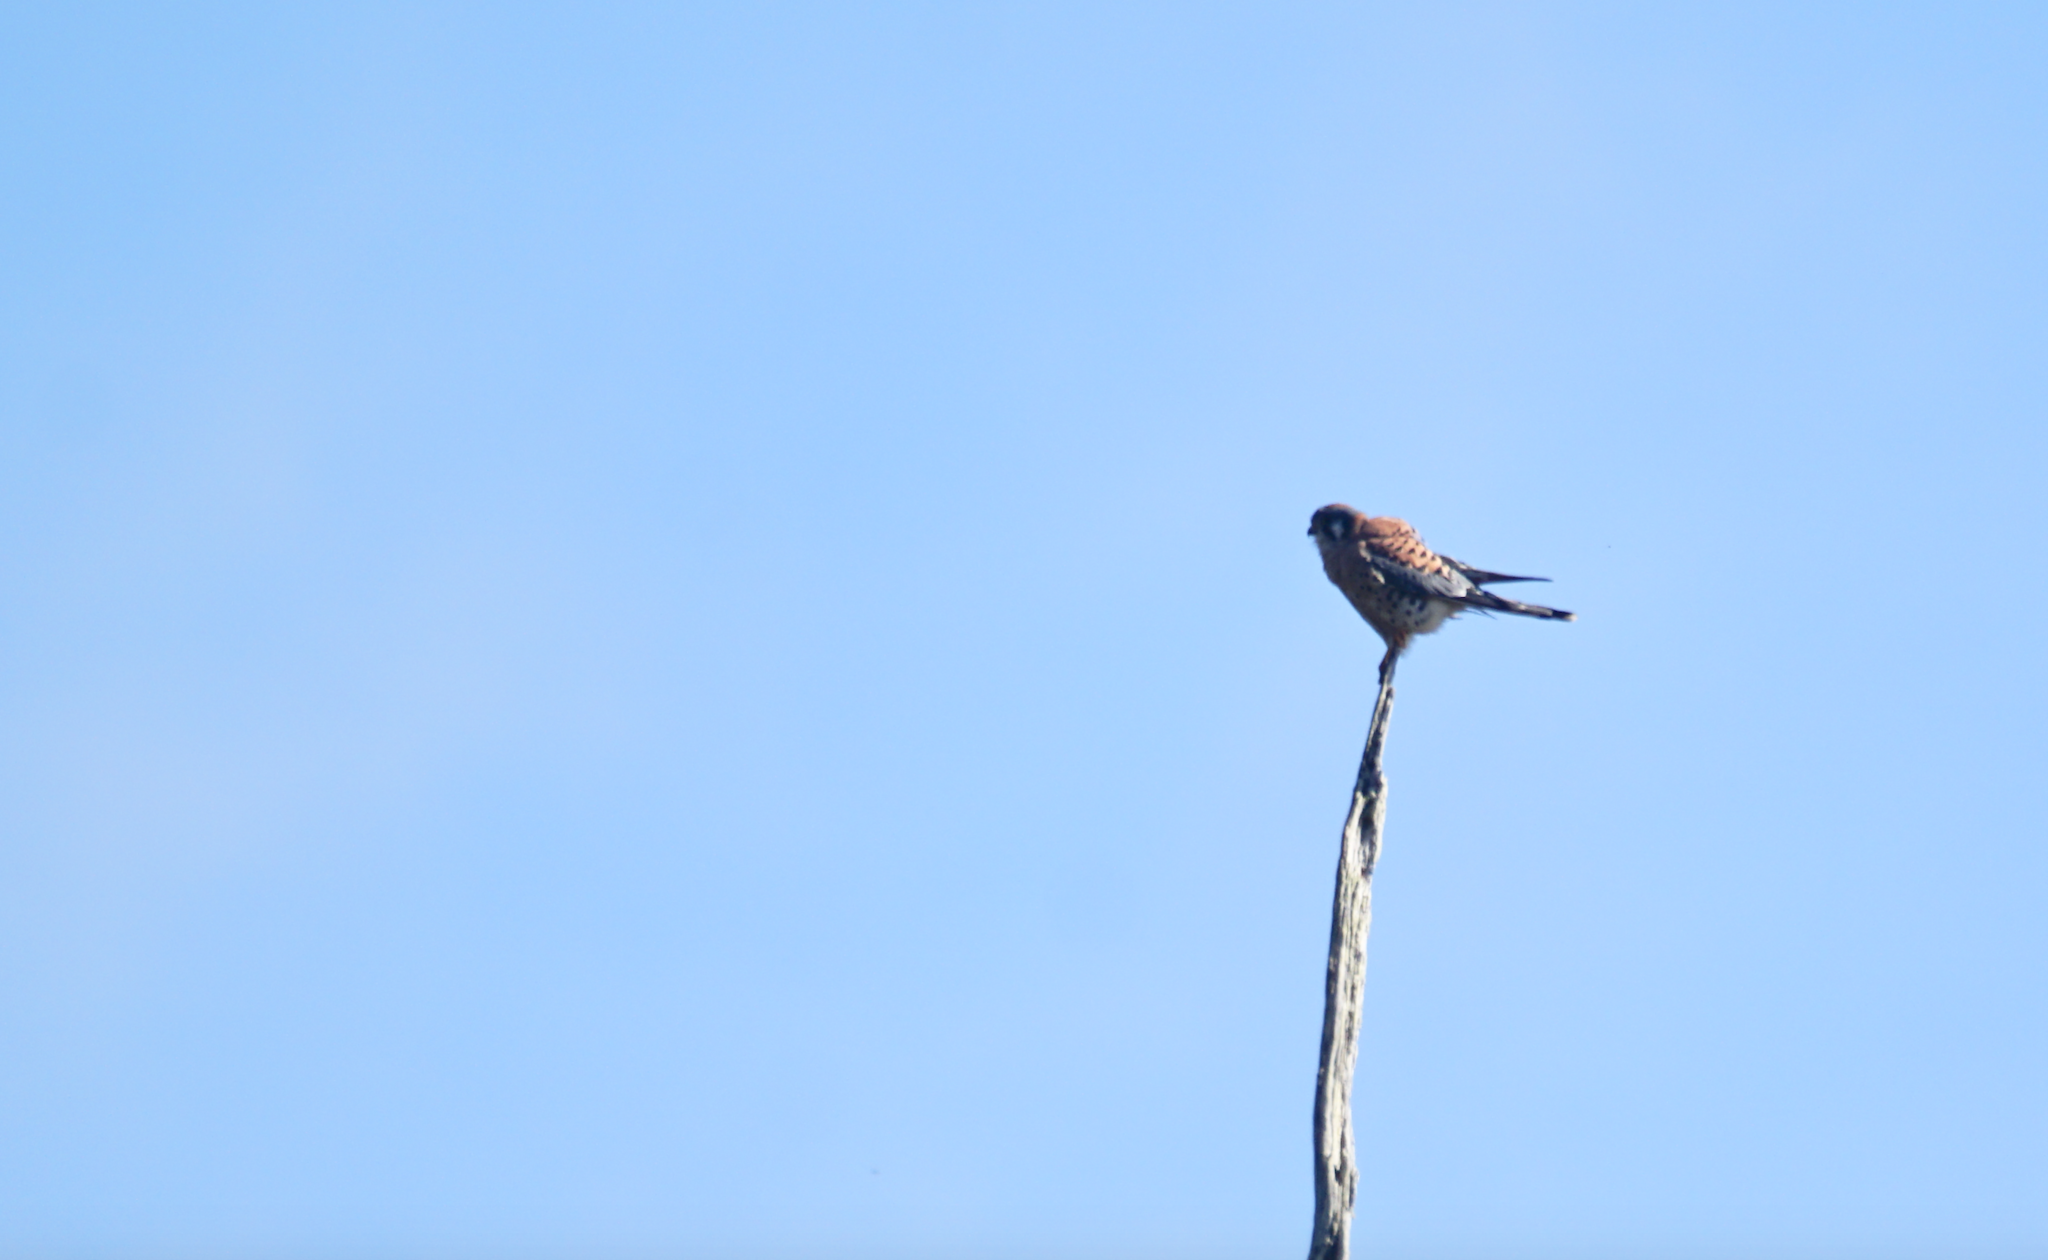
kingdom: Animalia
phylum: Chordata
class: Aves
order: Falconiformes
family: Falconidae
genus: Falco
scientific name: Falco sparverius
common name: American kestrel
